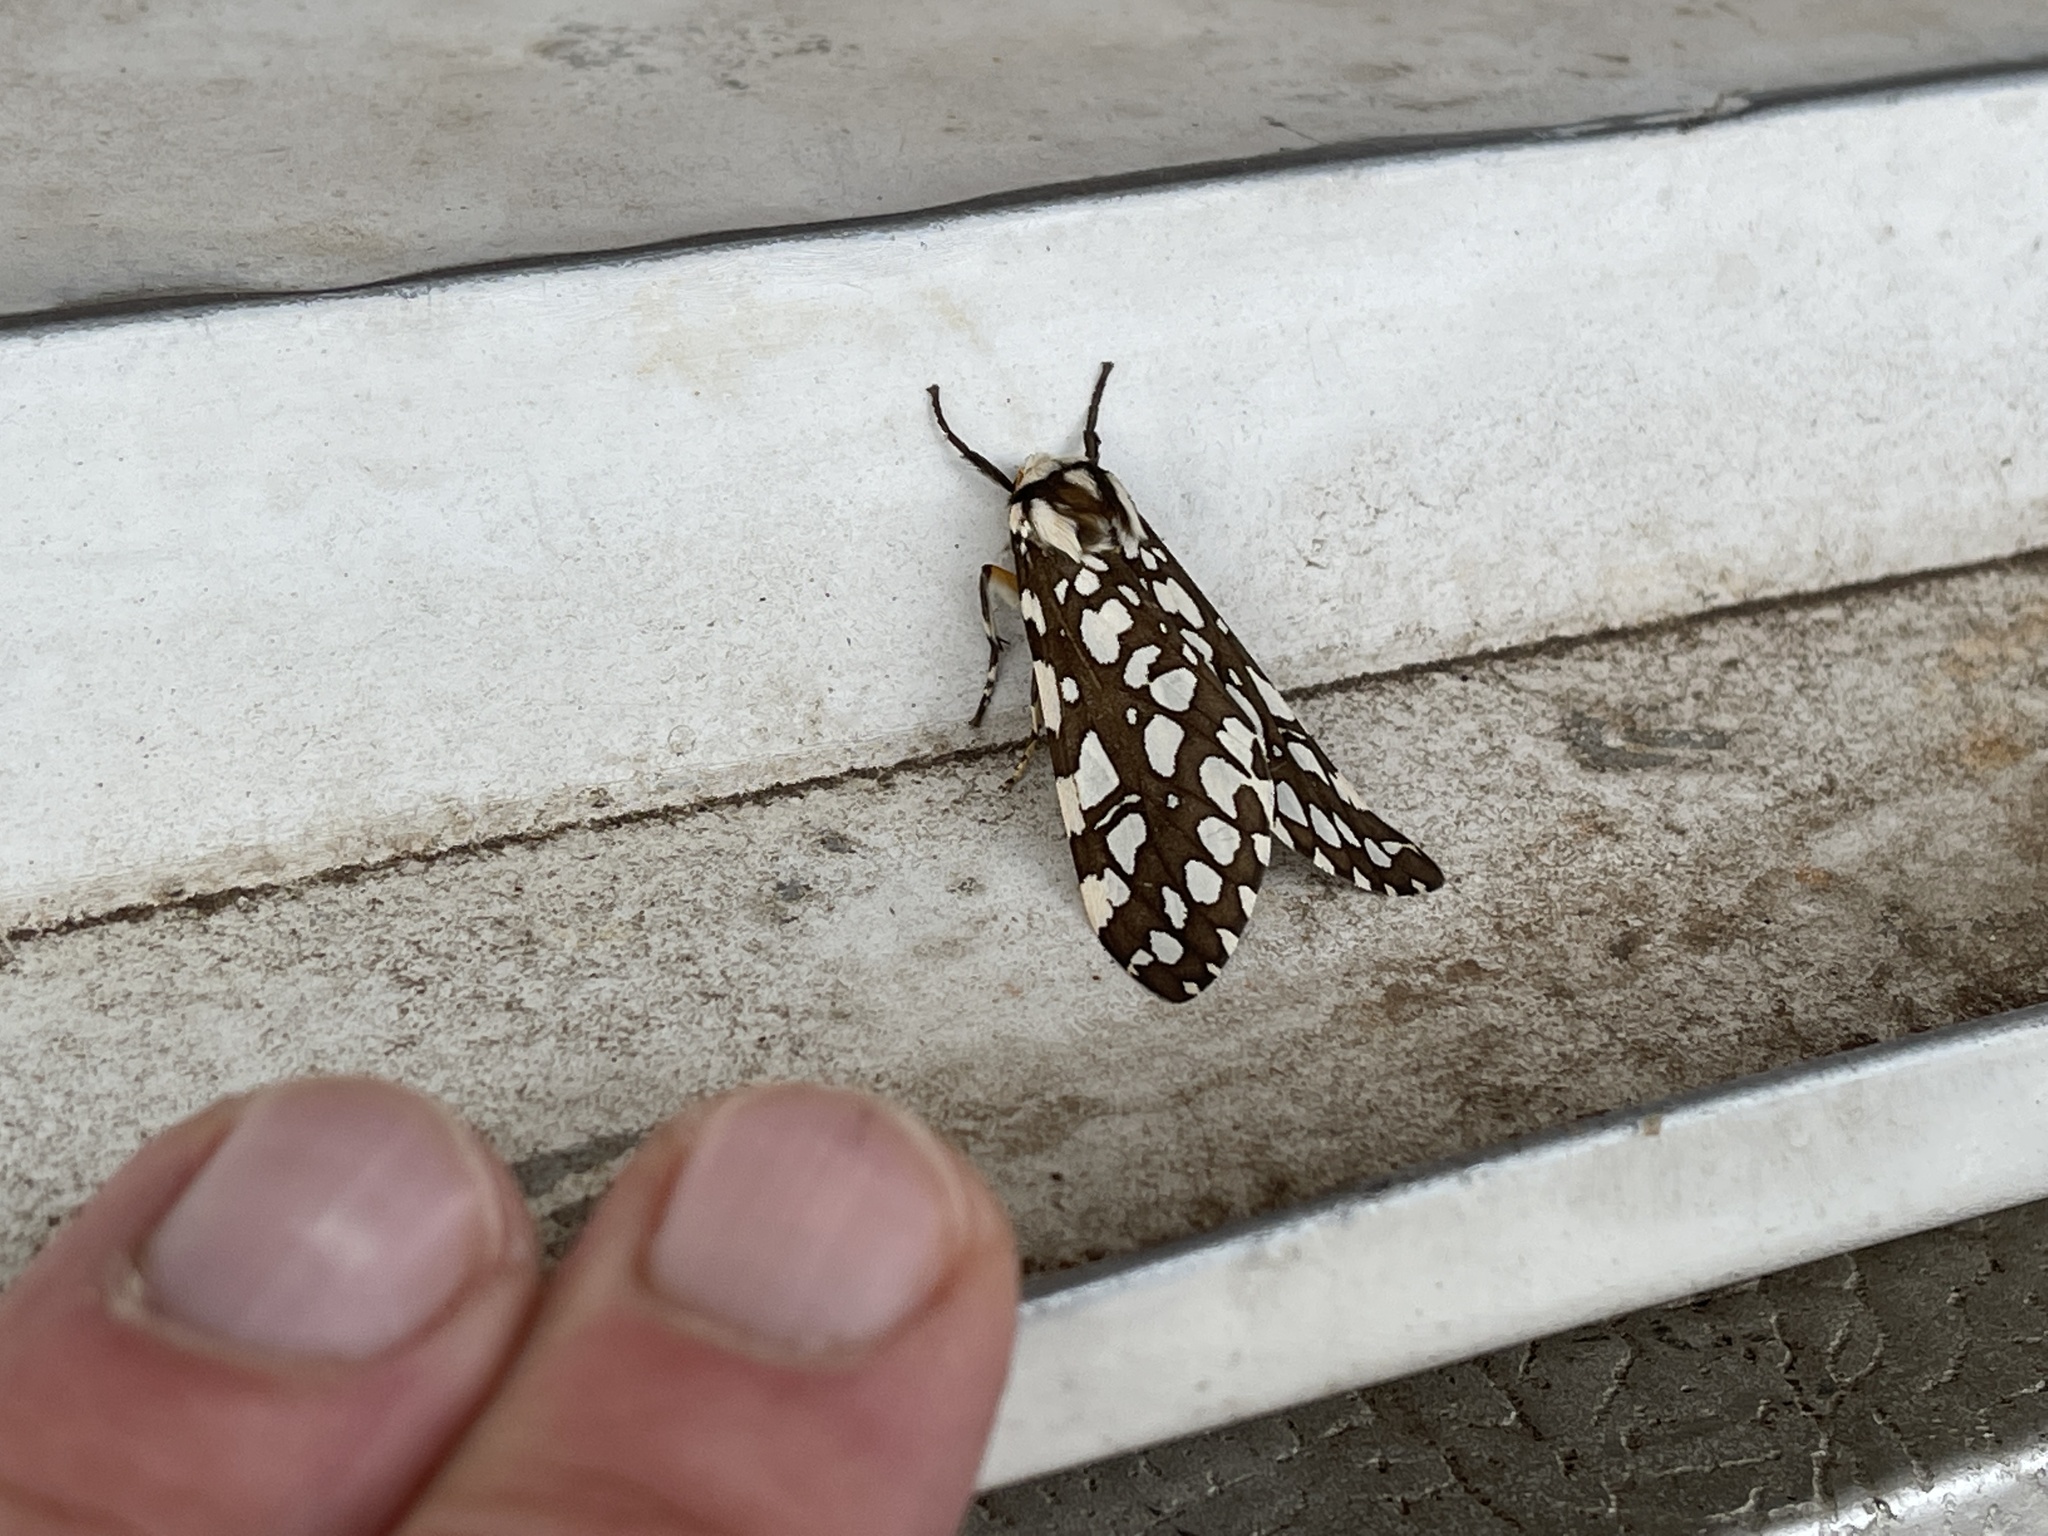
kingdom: Animalia
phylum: Arthropoda
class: Insecta
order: Lepidoptera
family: Erebidae
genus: Lophocampa
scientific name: Lophocampa ingens
